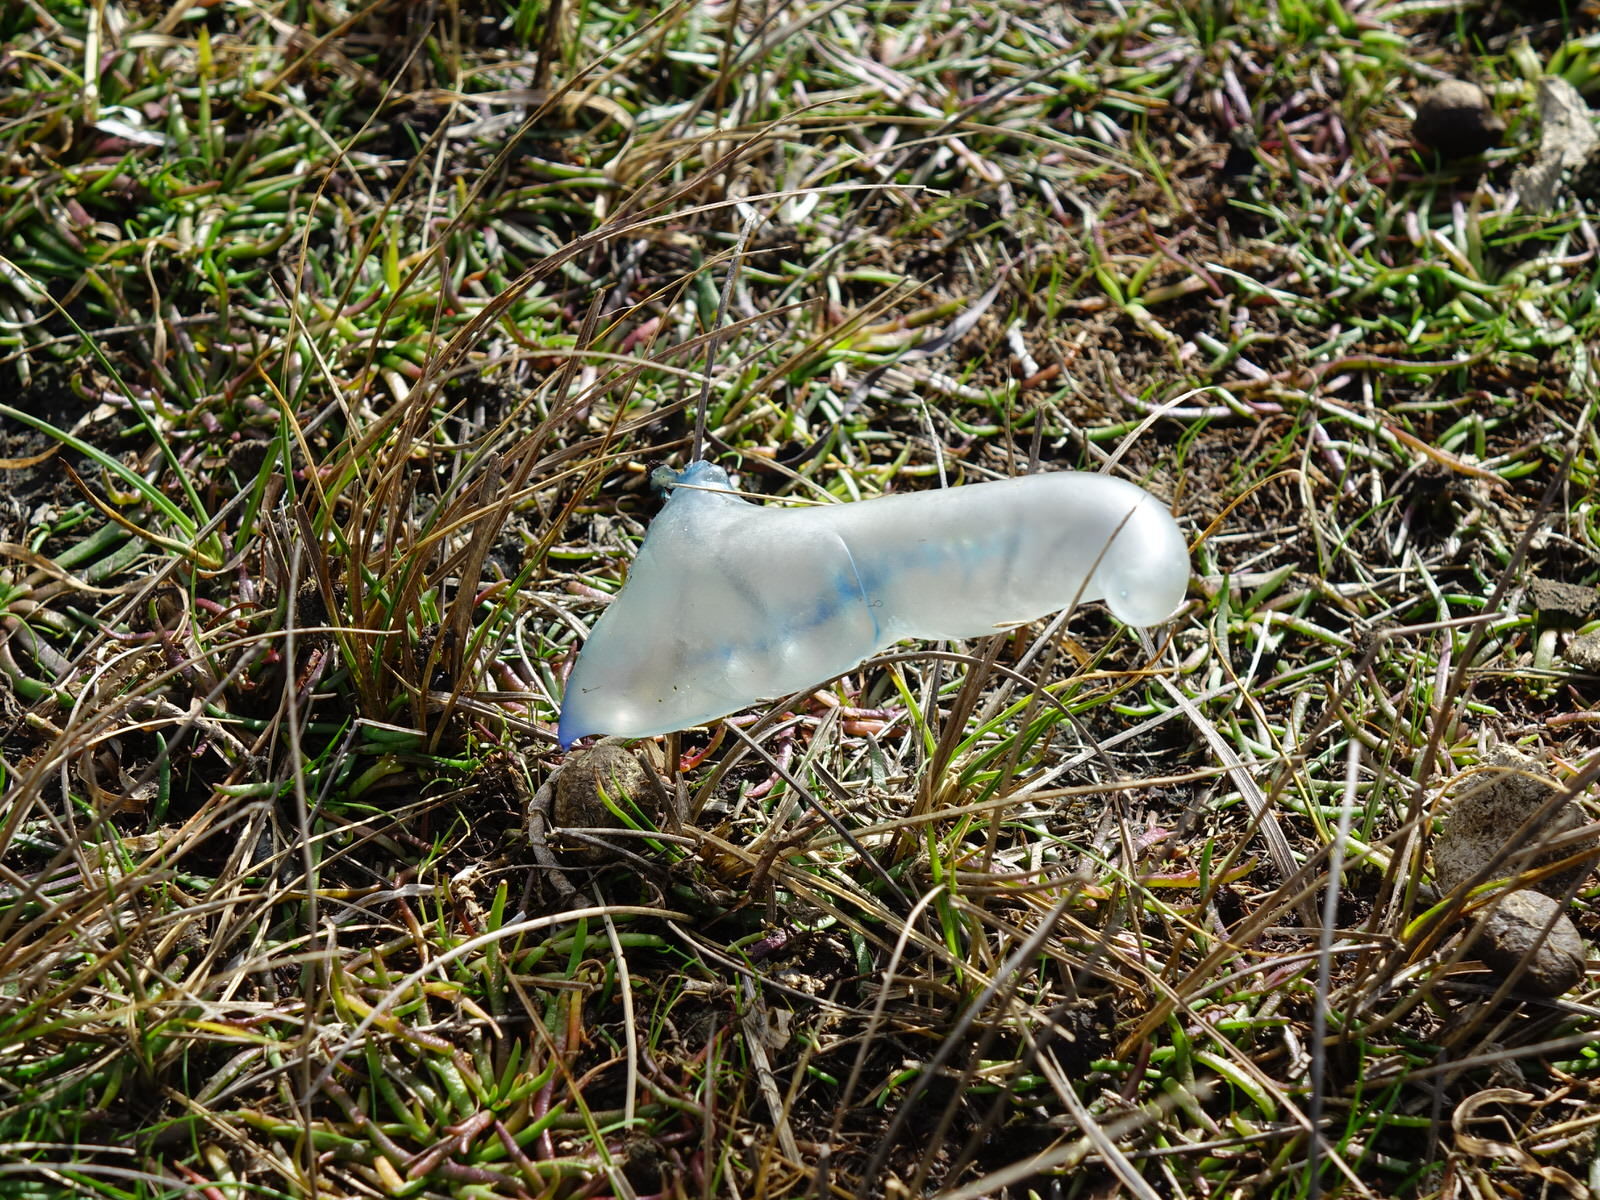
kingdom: Animalia
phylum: Cnidaria
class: Hydrozoa
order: Siphonophorae
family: Physaliidae
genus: Physalia
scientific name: Physalia physalis
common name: Portuguese man-of-war
